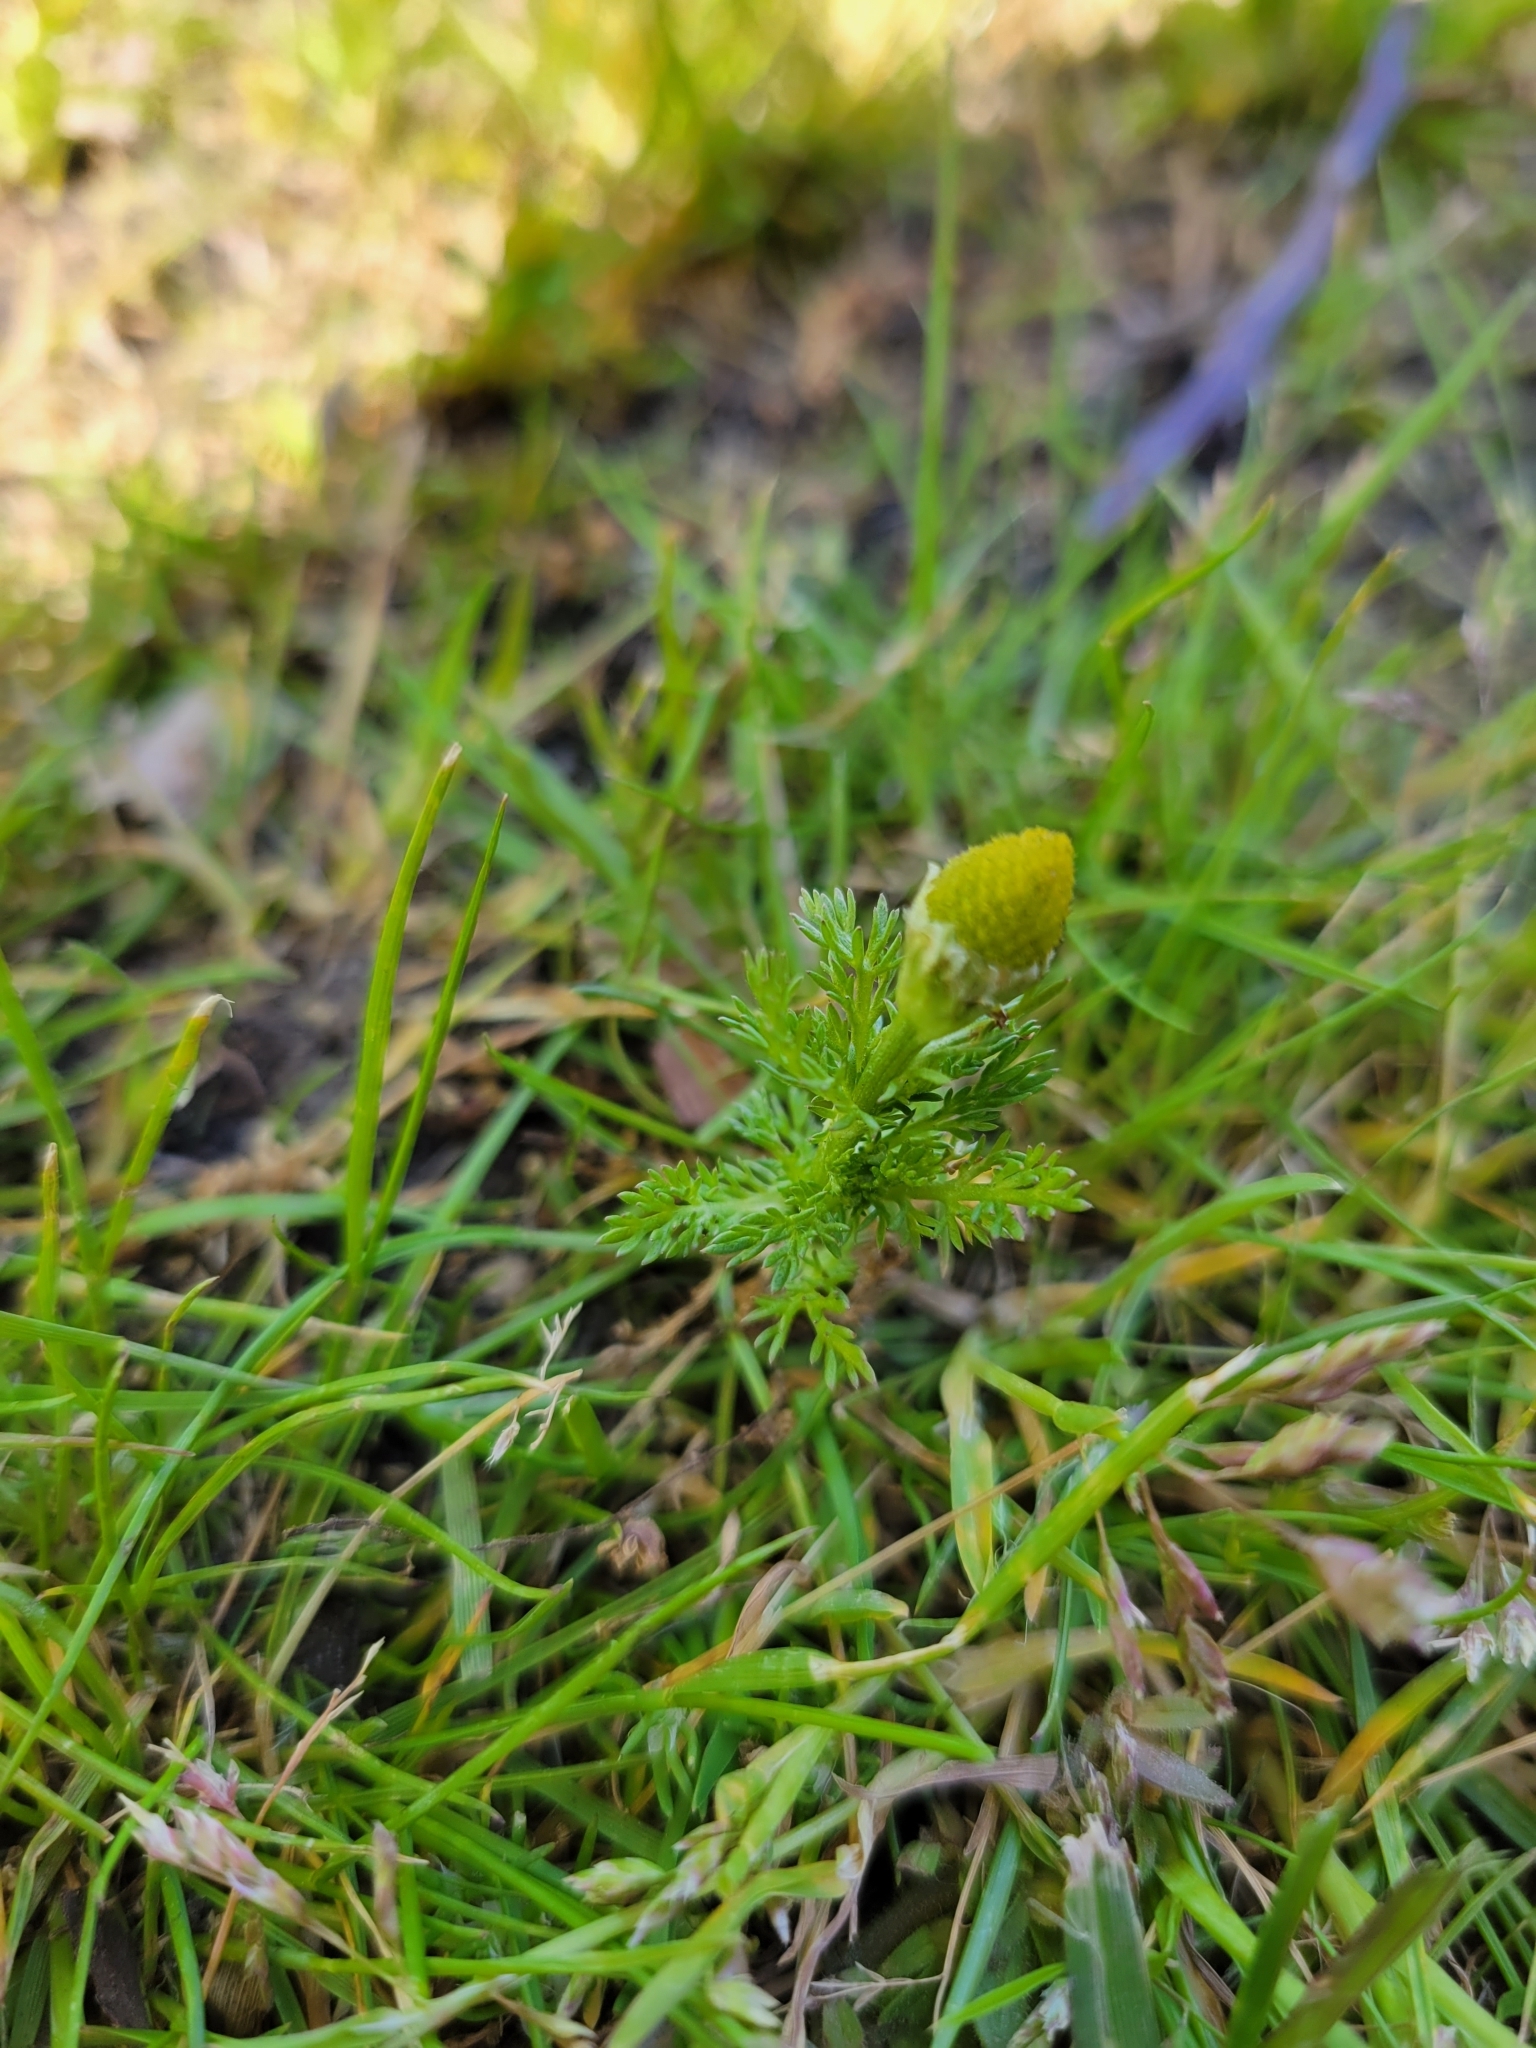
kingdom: Plantae
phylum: Tracheophyta
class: Magnoliopsida
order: Asterales
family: Asteraceae
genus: Matricaria
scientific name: Matricaria discoidea
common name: Disc mayweed
